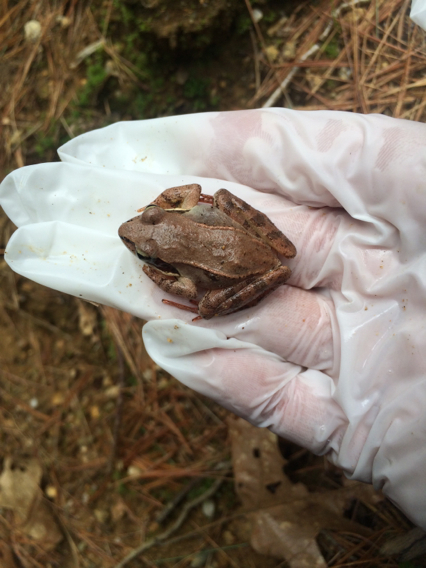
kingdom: Animalia
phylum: Chordata
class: Amphibia
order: Anura
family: Ranidae
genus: Lithobates
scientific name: Lithobates sylvaticus
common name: Wood frog
